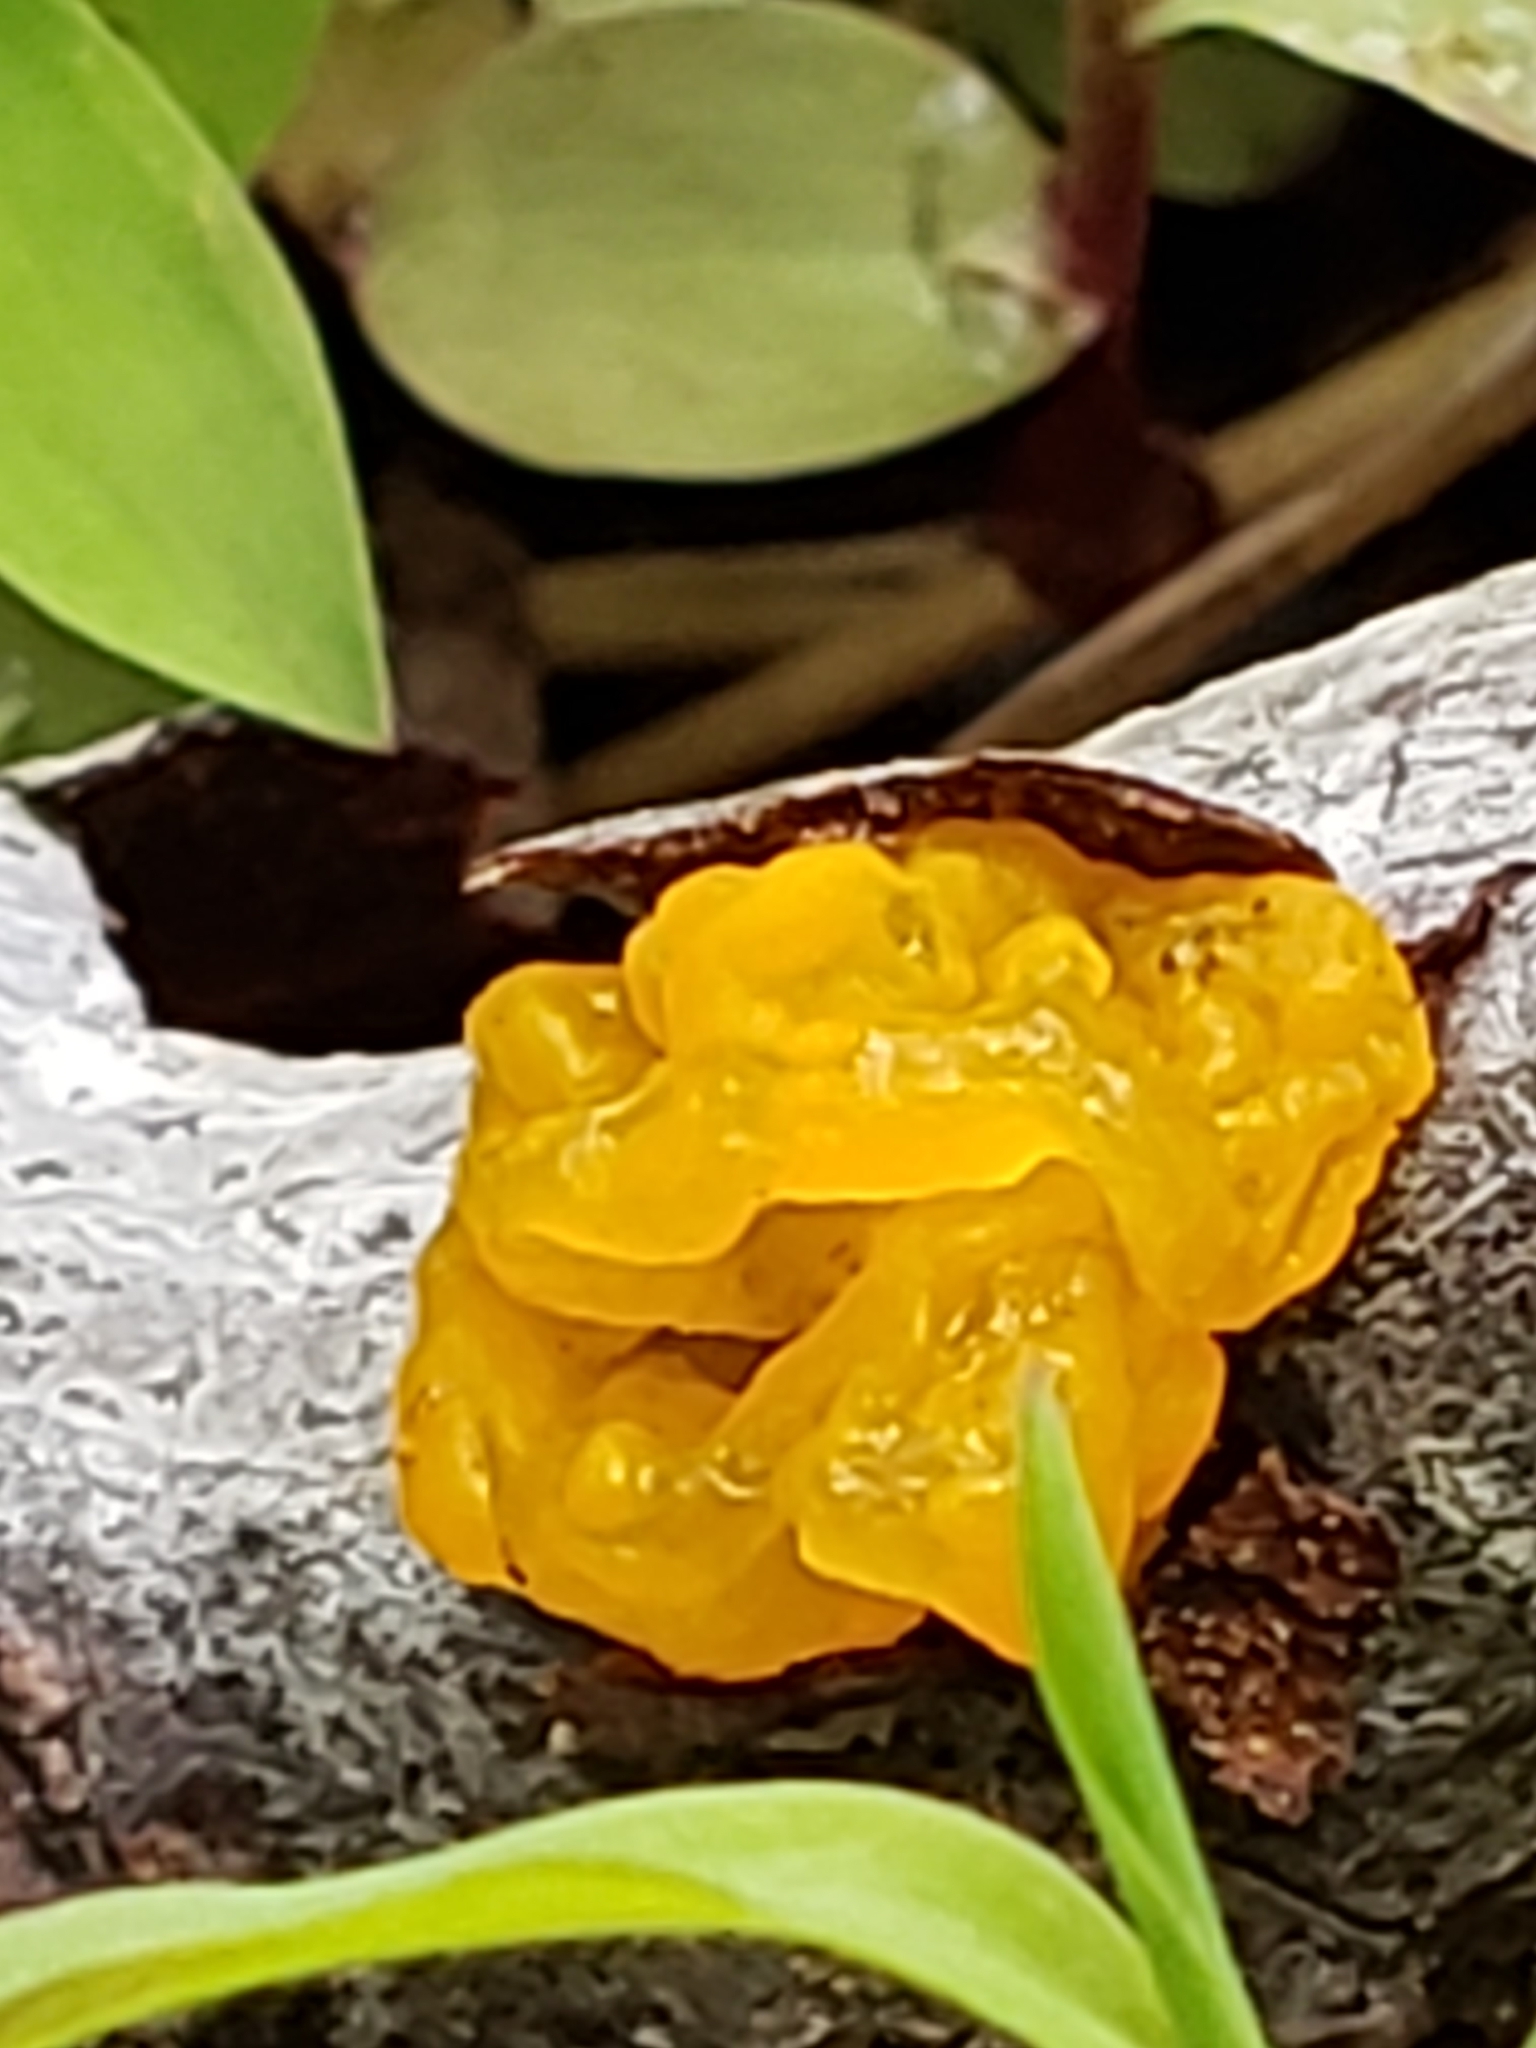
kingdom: Fungi
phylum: Basidiomycota
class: Tremellomycetes
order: Tremellales
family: Tremellaceae
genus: Tremella
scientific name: Tremella mesenterica
